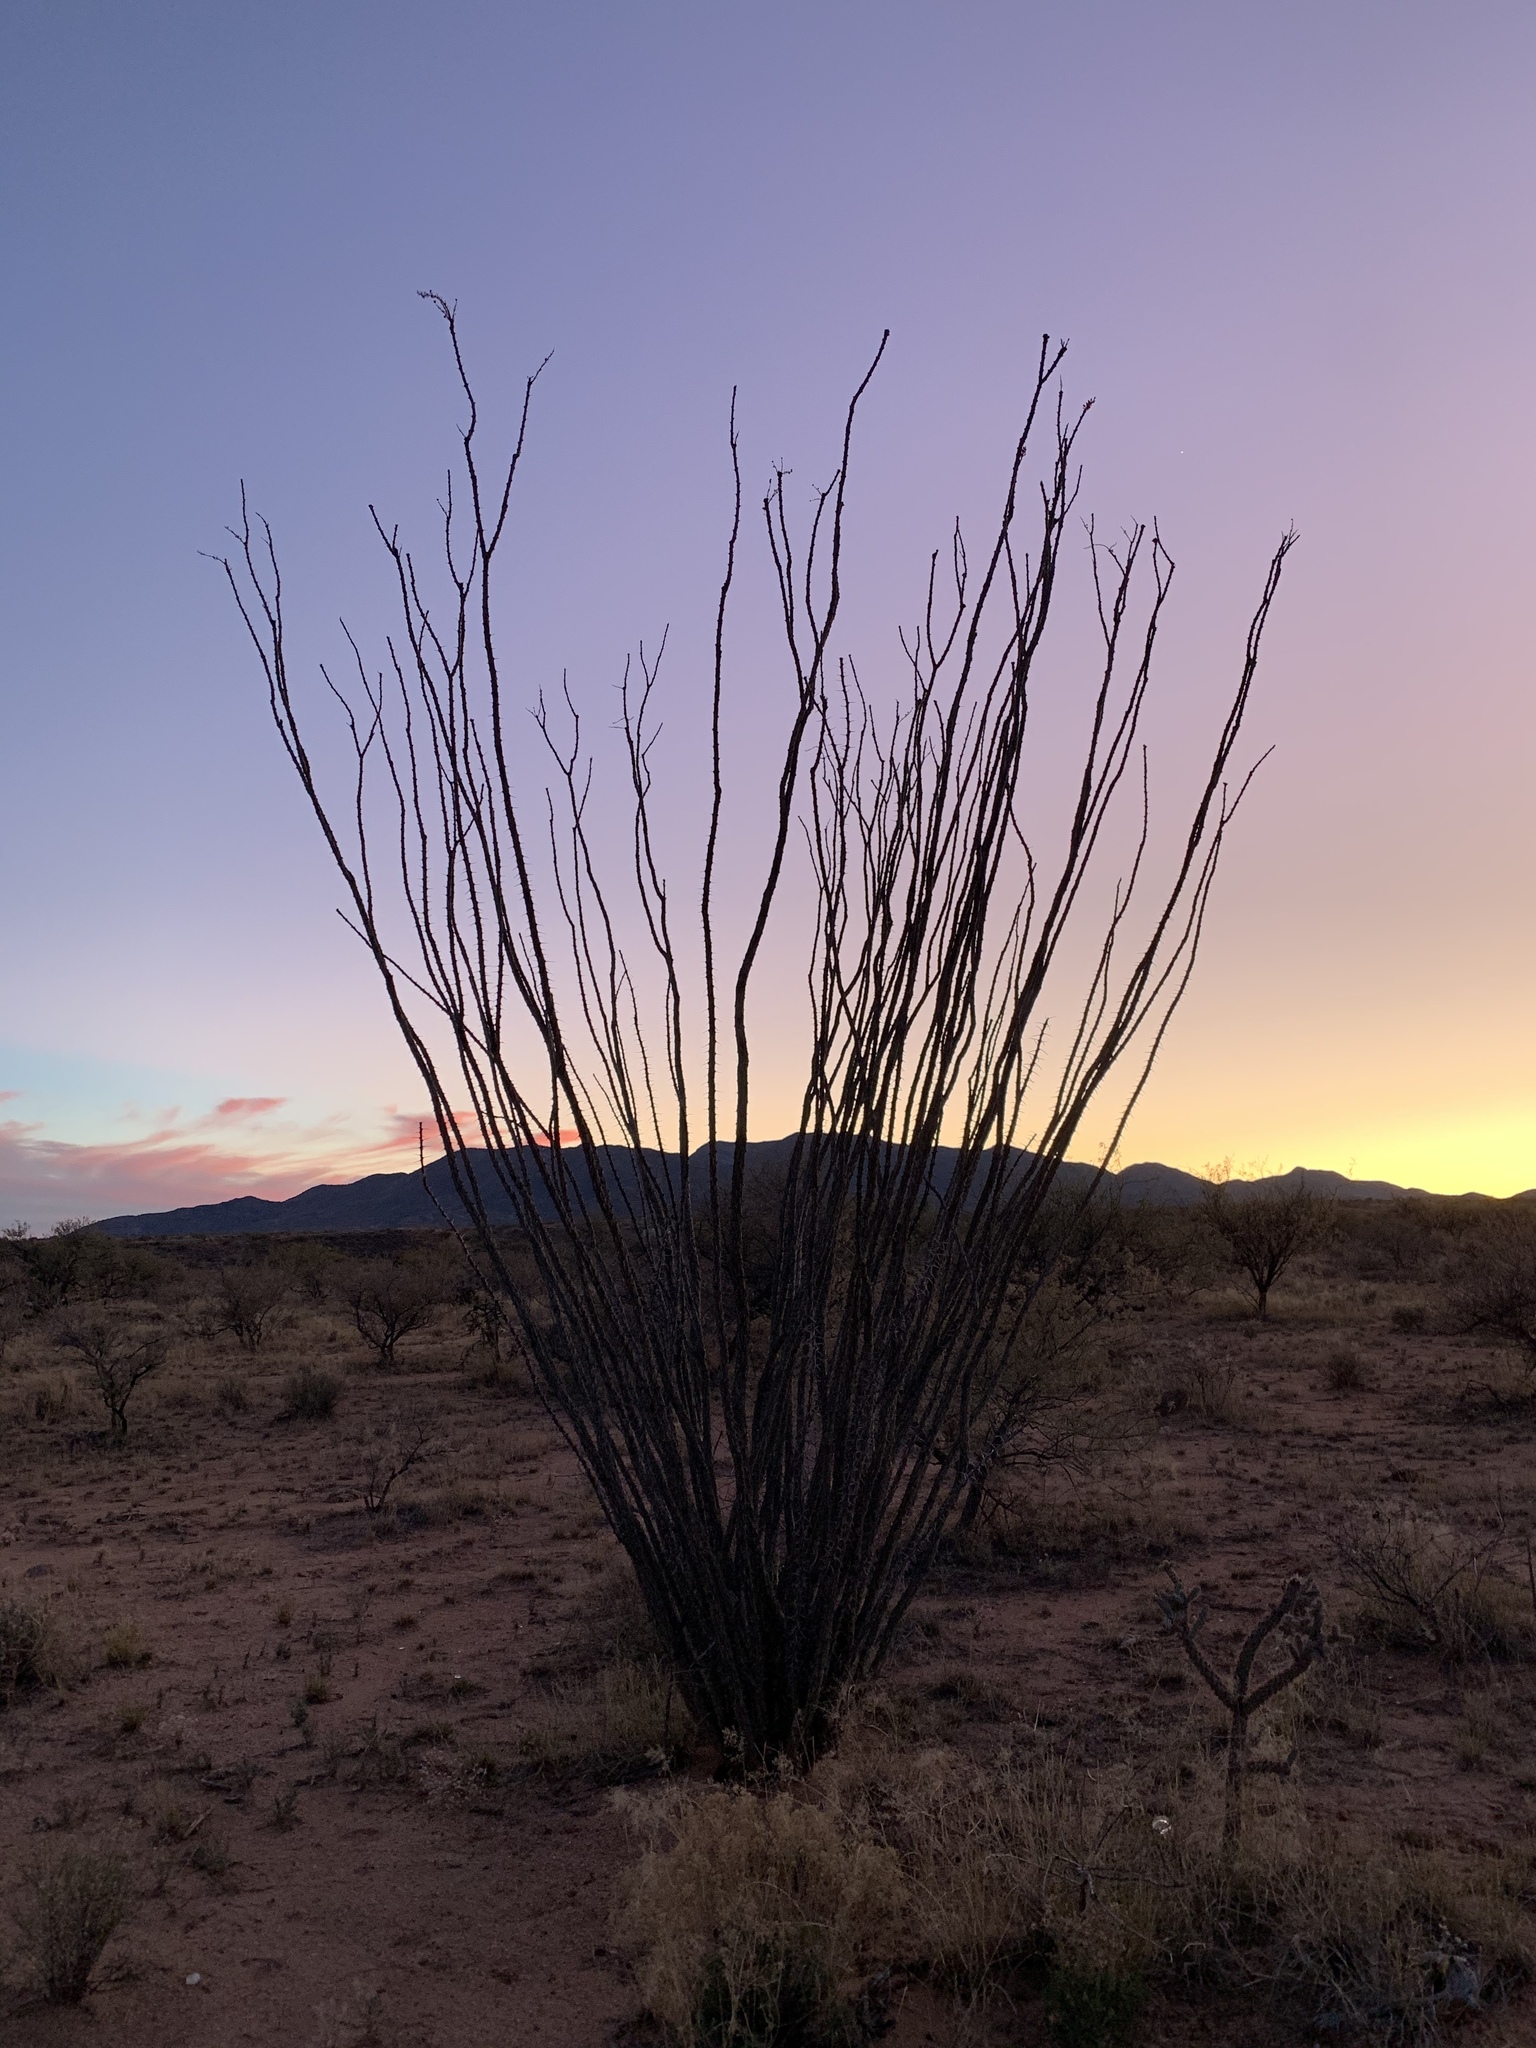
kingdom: Plantae
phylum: Tracheophyta
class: Magnoliopsida
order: Ericales
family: Fouquieriaceae
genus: Fouquieria
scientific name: Fouquieria splendens
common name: Vine-cactus
